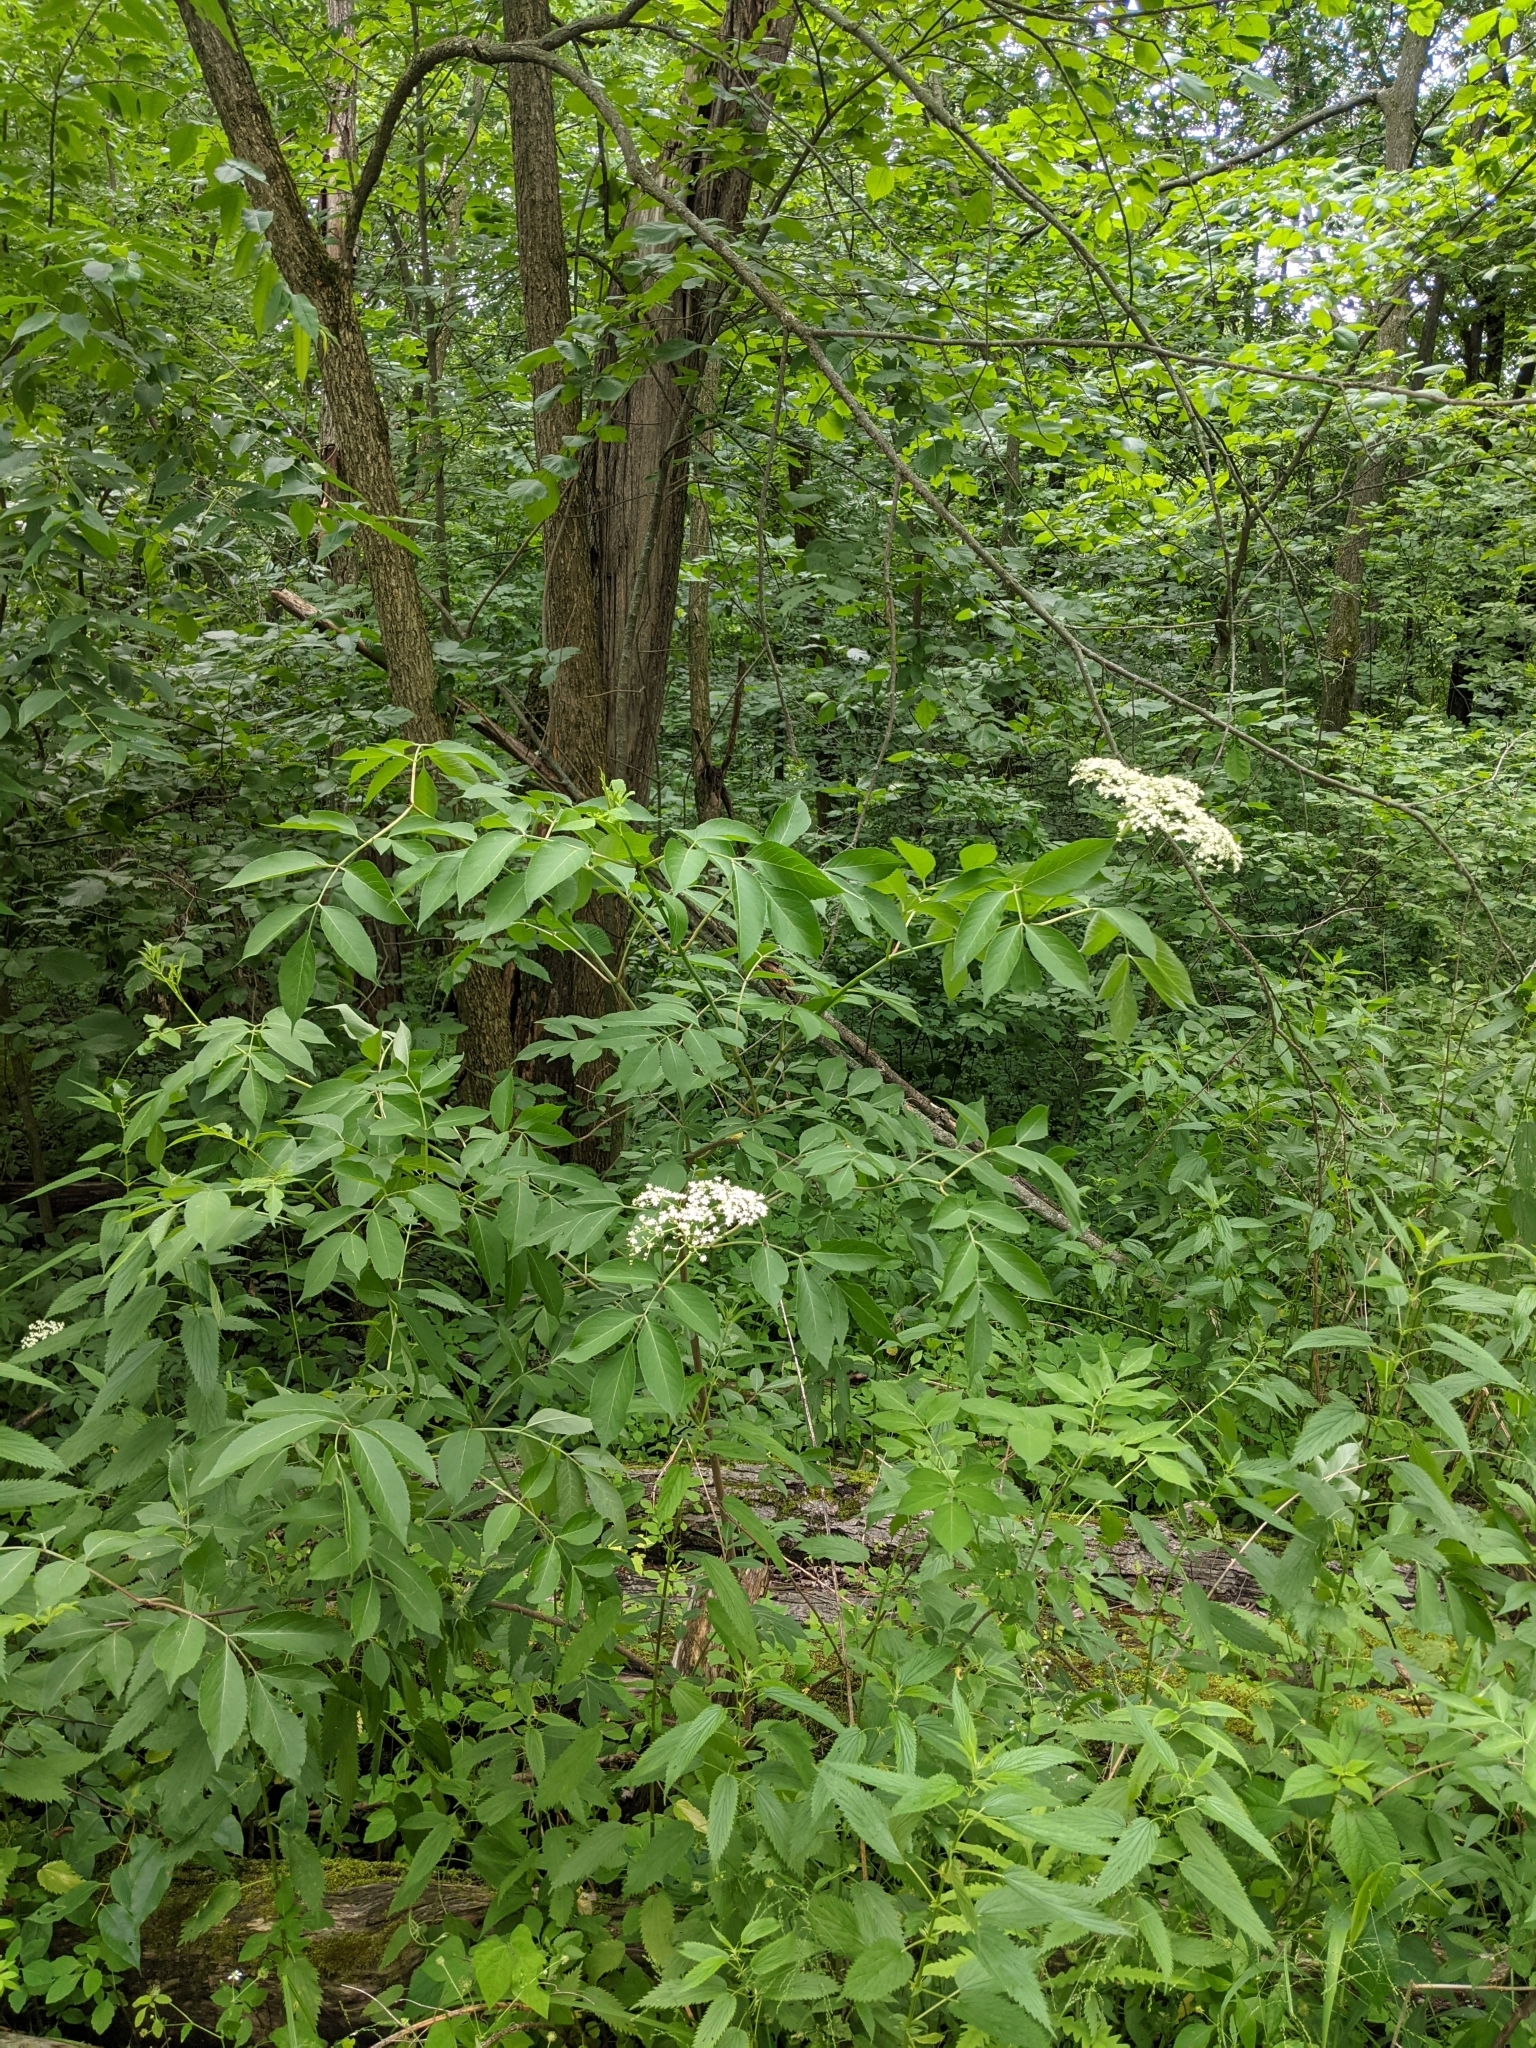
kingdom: Plantae
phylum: Tracheophyta
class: Magnoliopsida
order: Dipsacales
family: Viburnaceae
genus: Sambucus
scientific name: Sambucus canadensis
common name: American elder
